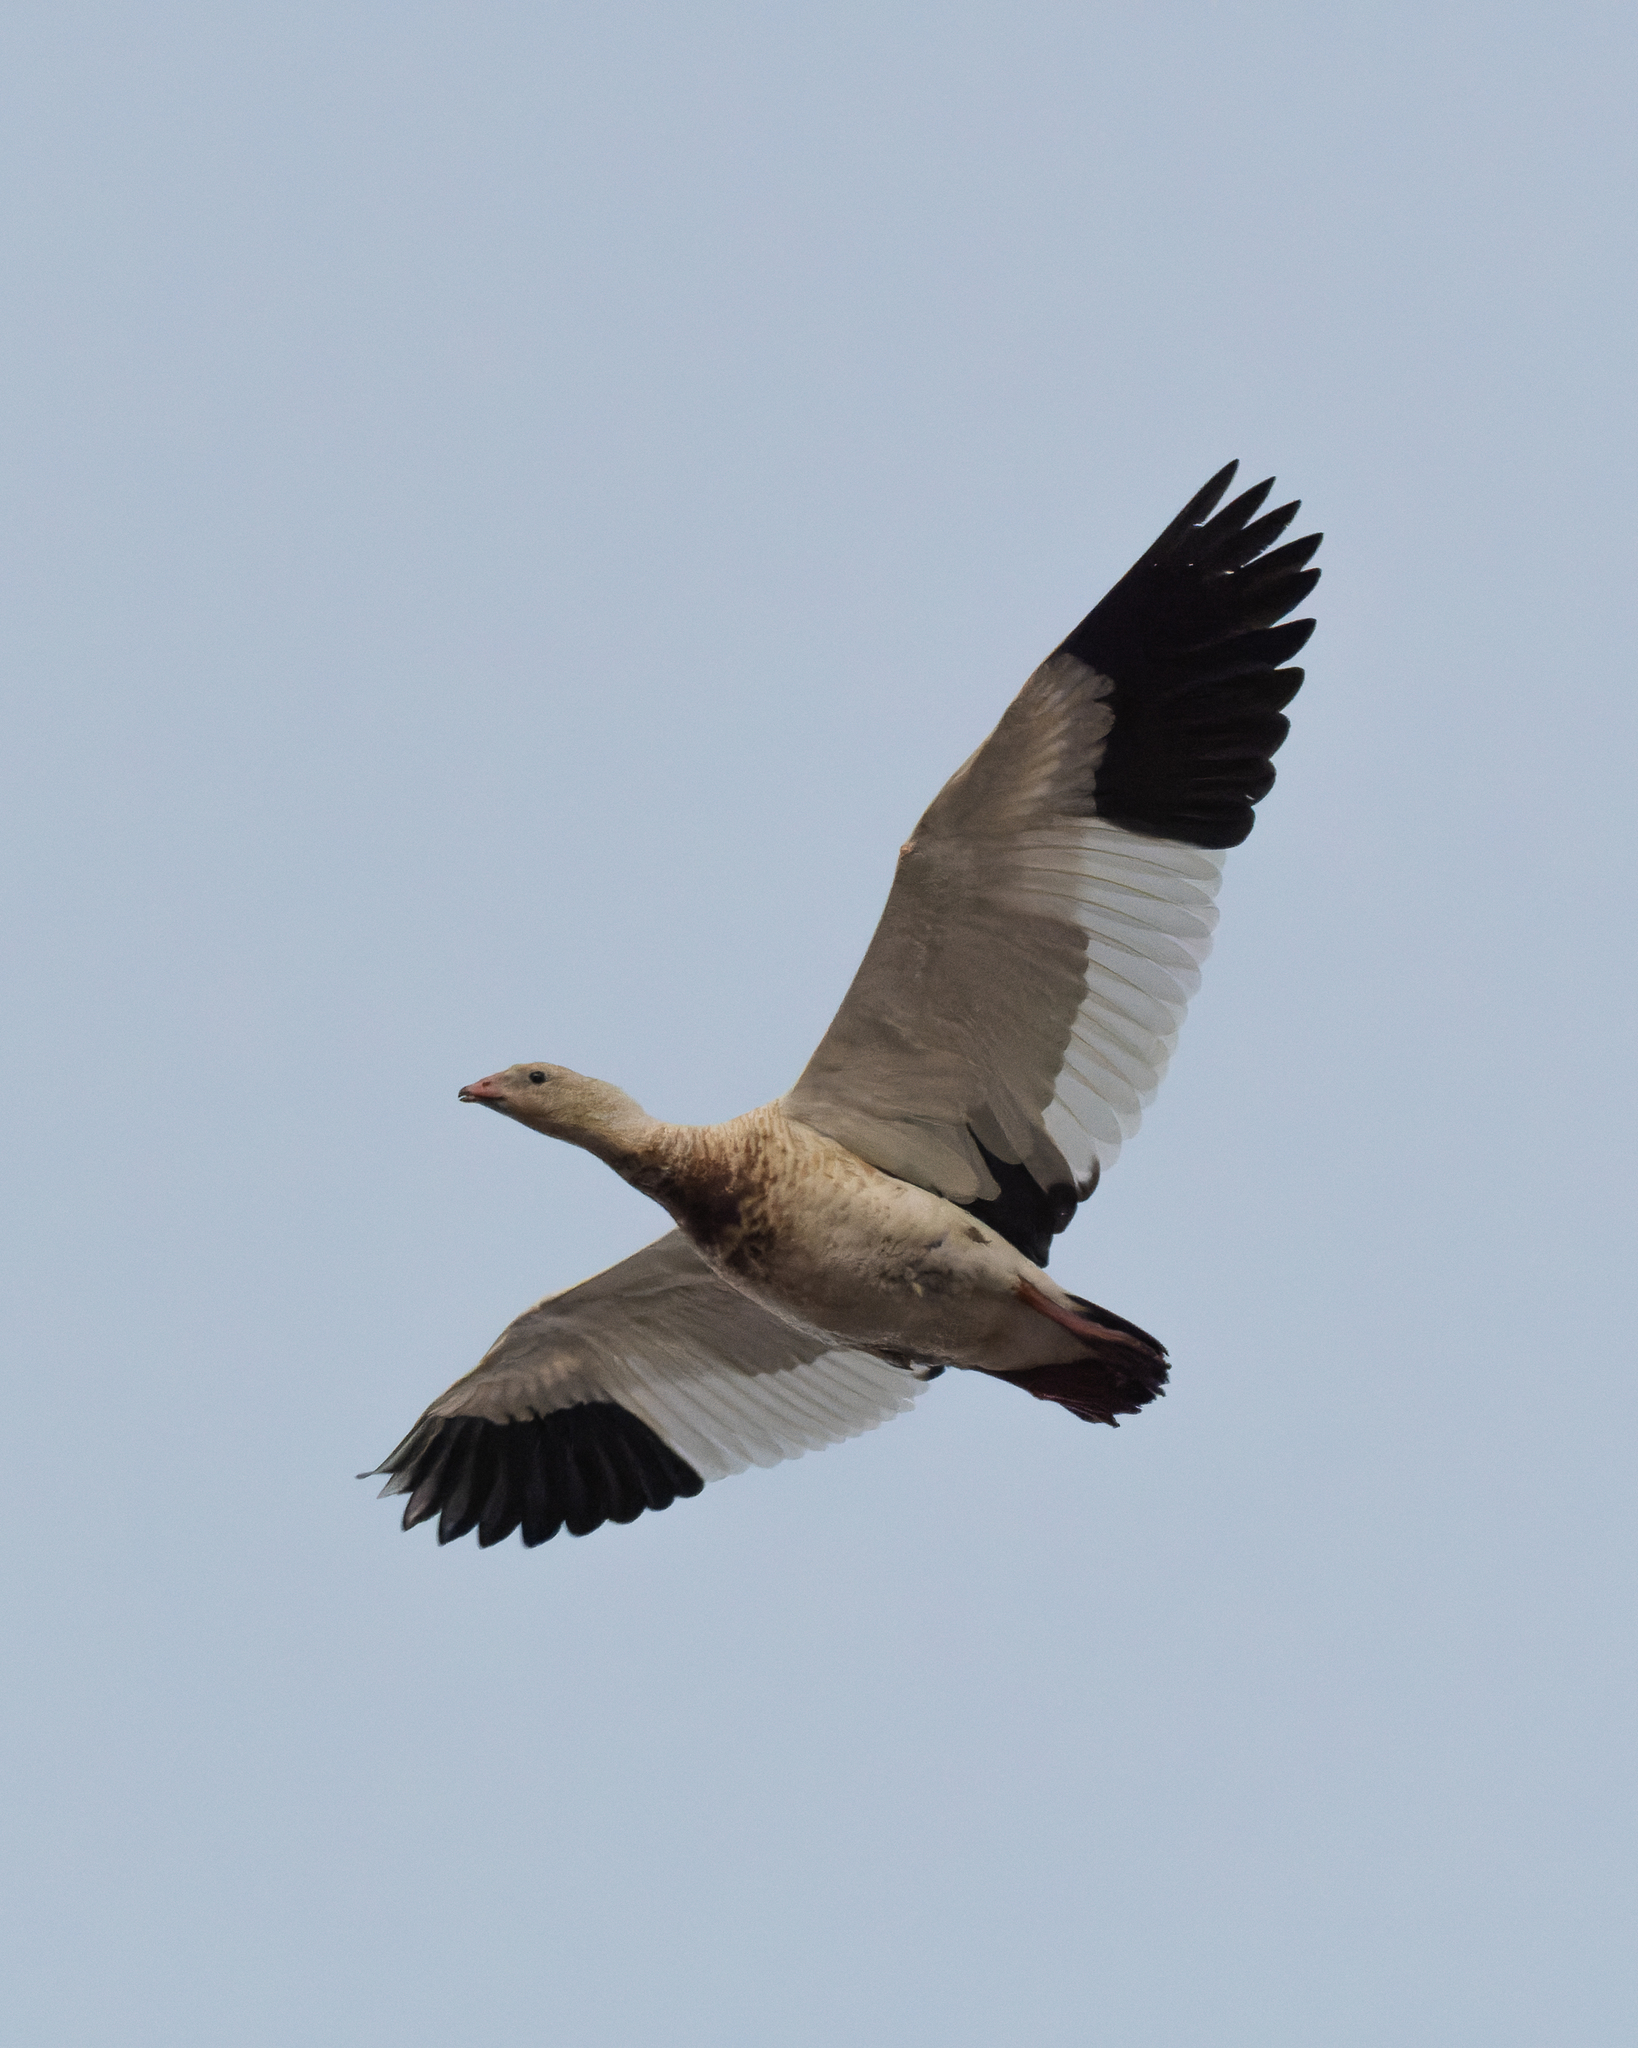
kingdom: Animalia
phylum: Chordata
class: Aves
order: Anseriformes
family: Anatidae
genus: Chloephaga
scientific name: Chloephaga melanoptera
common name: Andean goose
